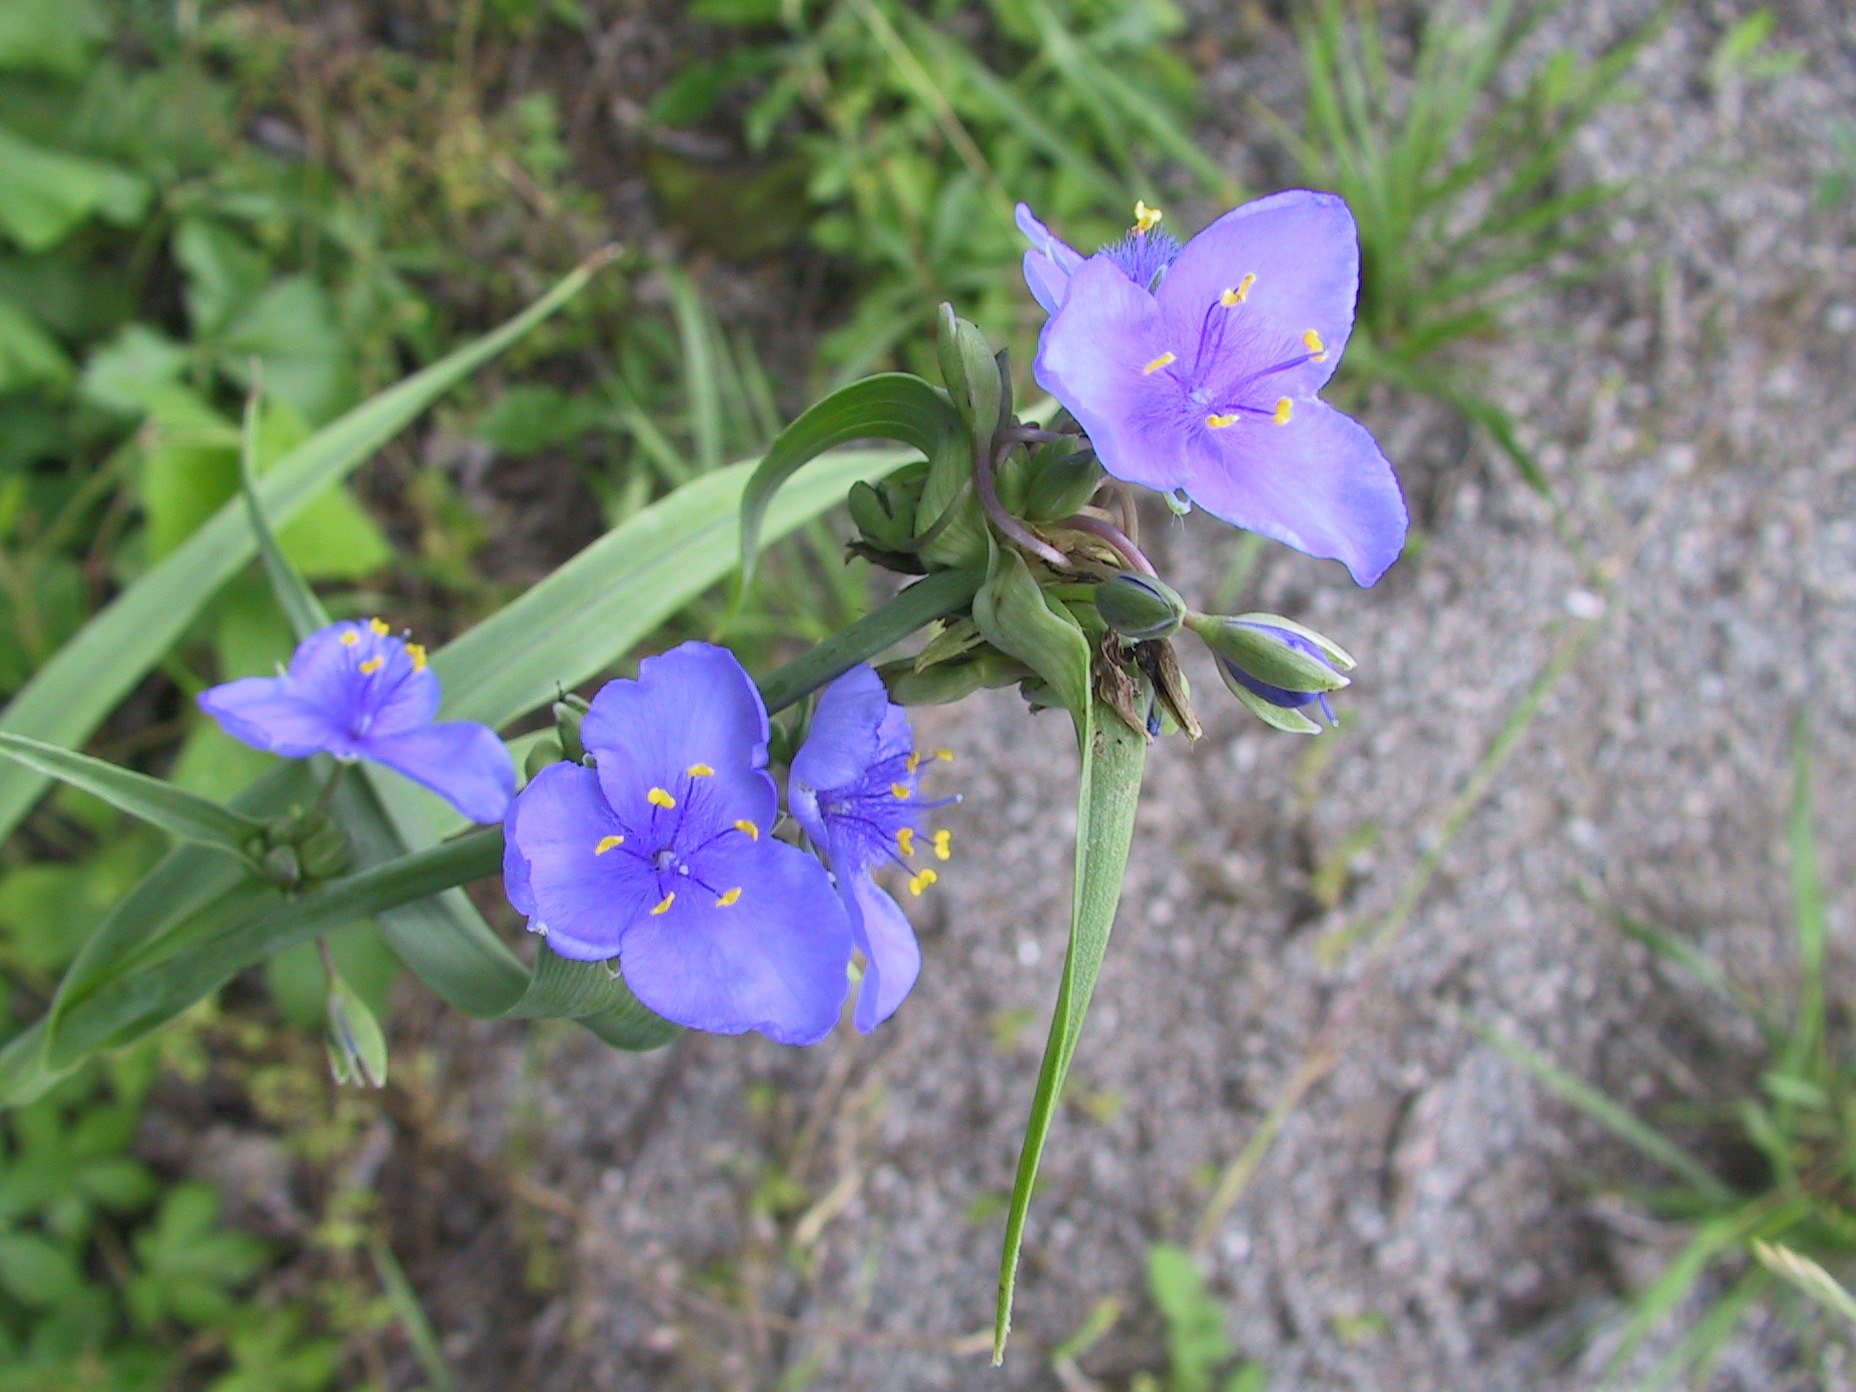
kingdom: Plantae
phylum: Tracheophyta
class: Liliopsida
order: Commelinales
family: Commelinaceae
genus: Tradescantia
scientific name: Tradescantia ohiensis
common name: Ohio spiderwort
